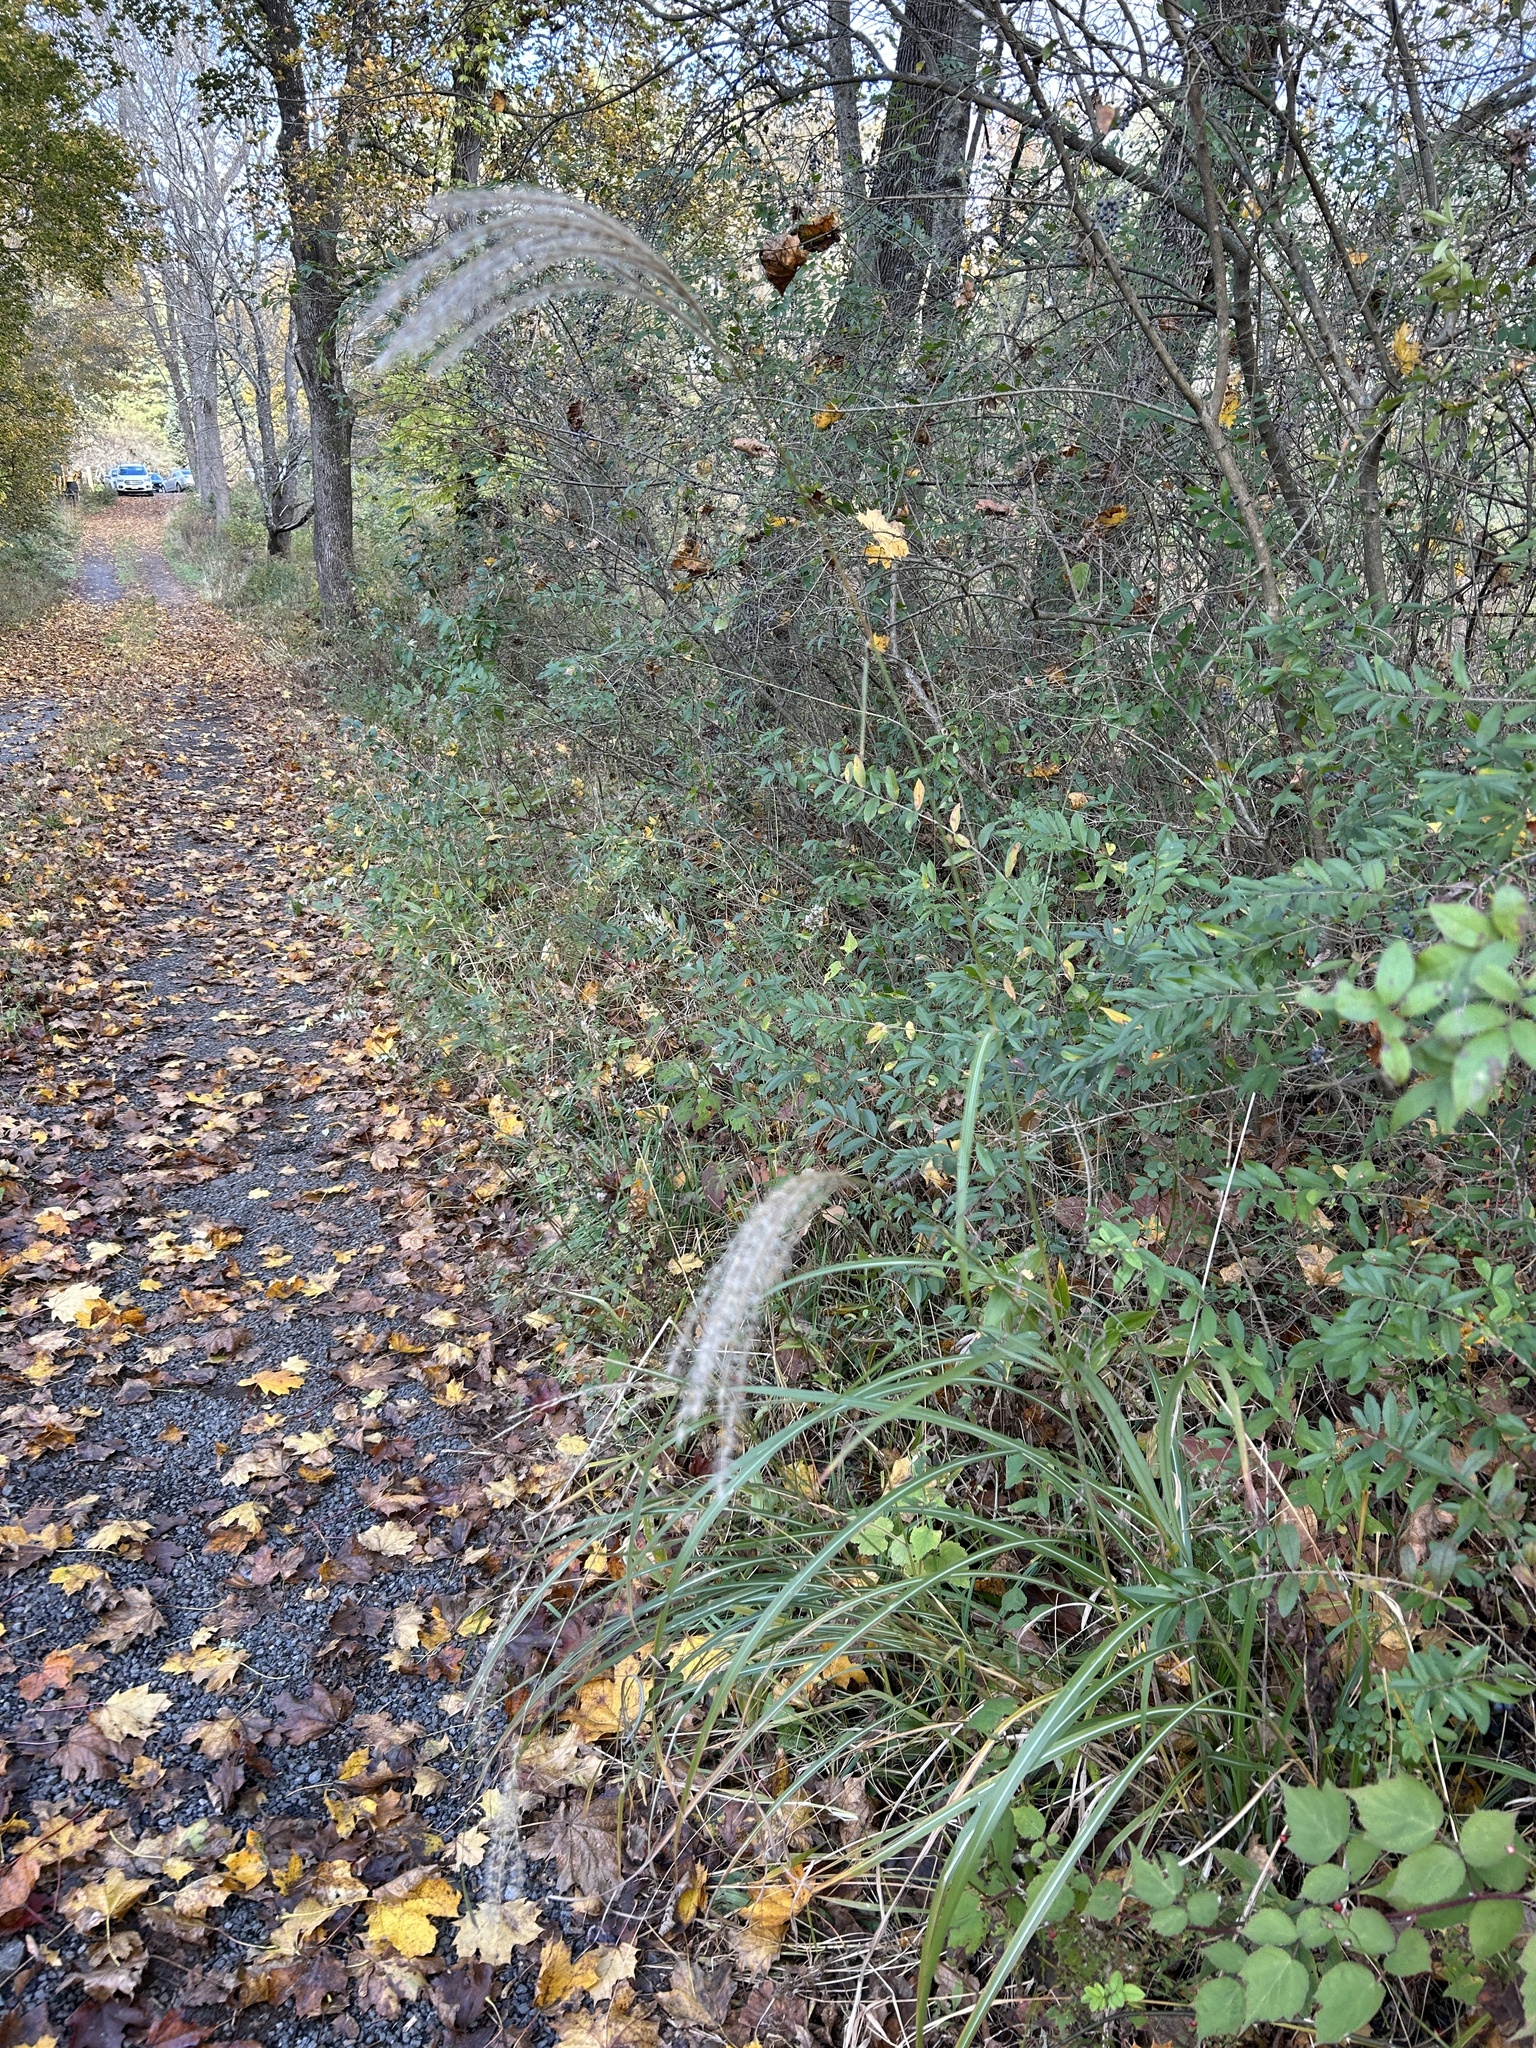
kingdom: Plantae
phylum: Tracheophyta
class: Liliopsida
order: Poales
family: Poaceae
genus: Miscanthus
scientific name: Miscanthus sinensis
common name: Chinese silvergrass
